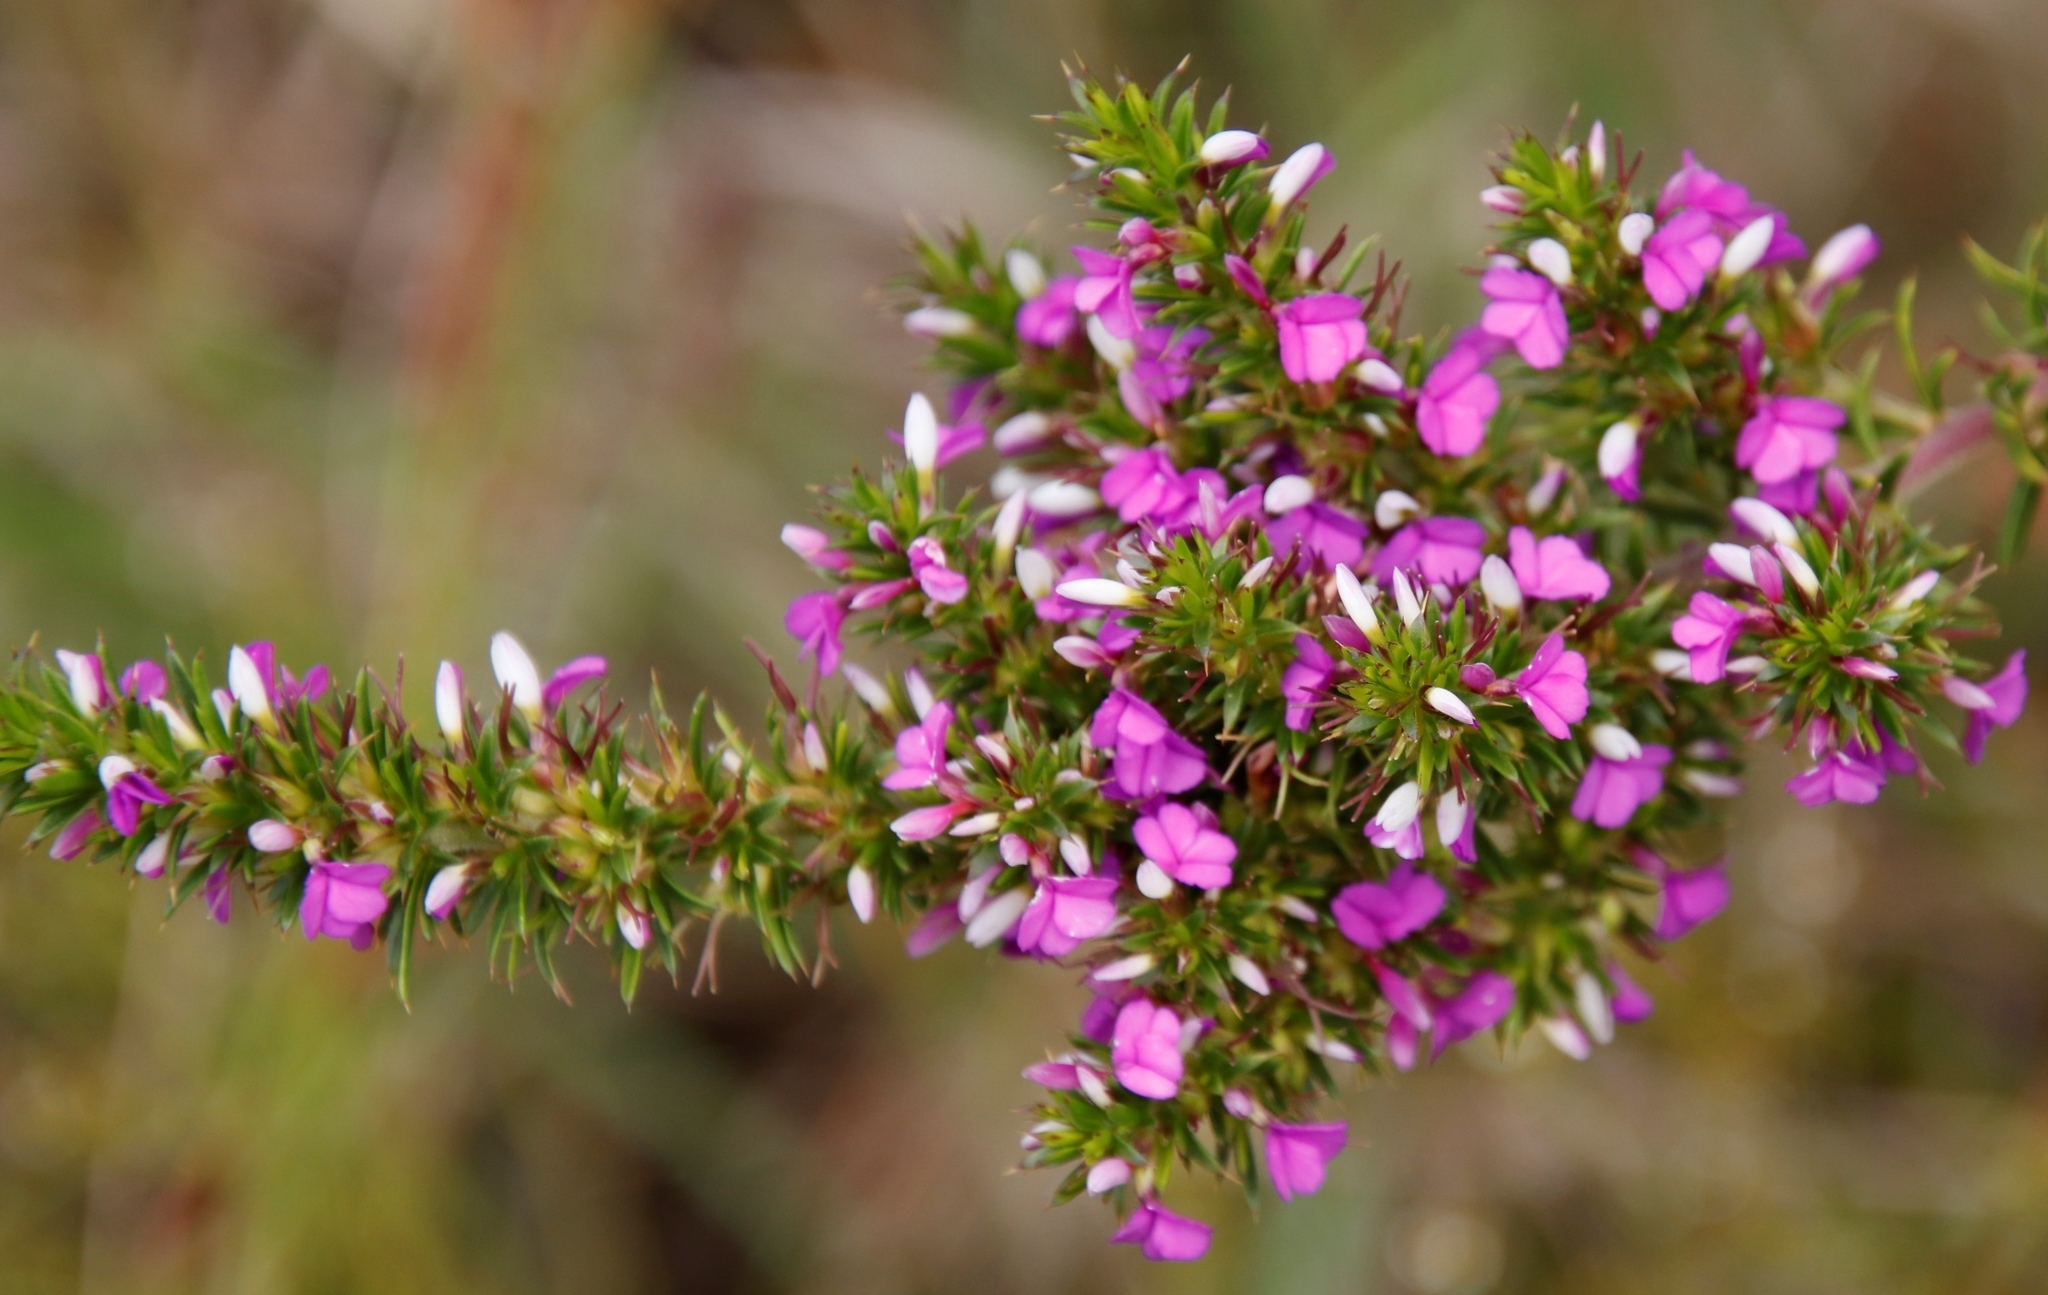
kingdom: Plantae
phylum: Tracheophyta
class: Magnoliopsida
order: Fabales
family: Polygalaceae
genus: Muraltia
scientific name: Muraltia heisteria
